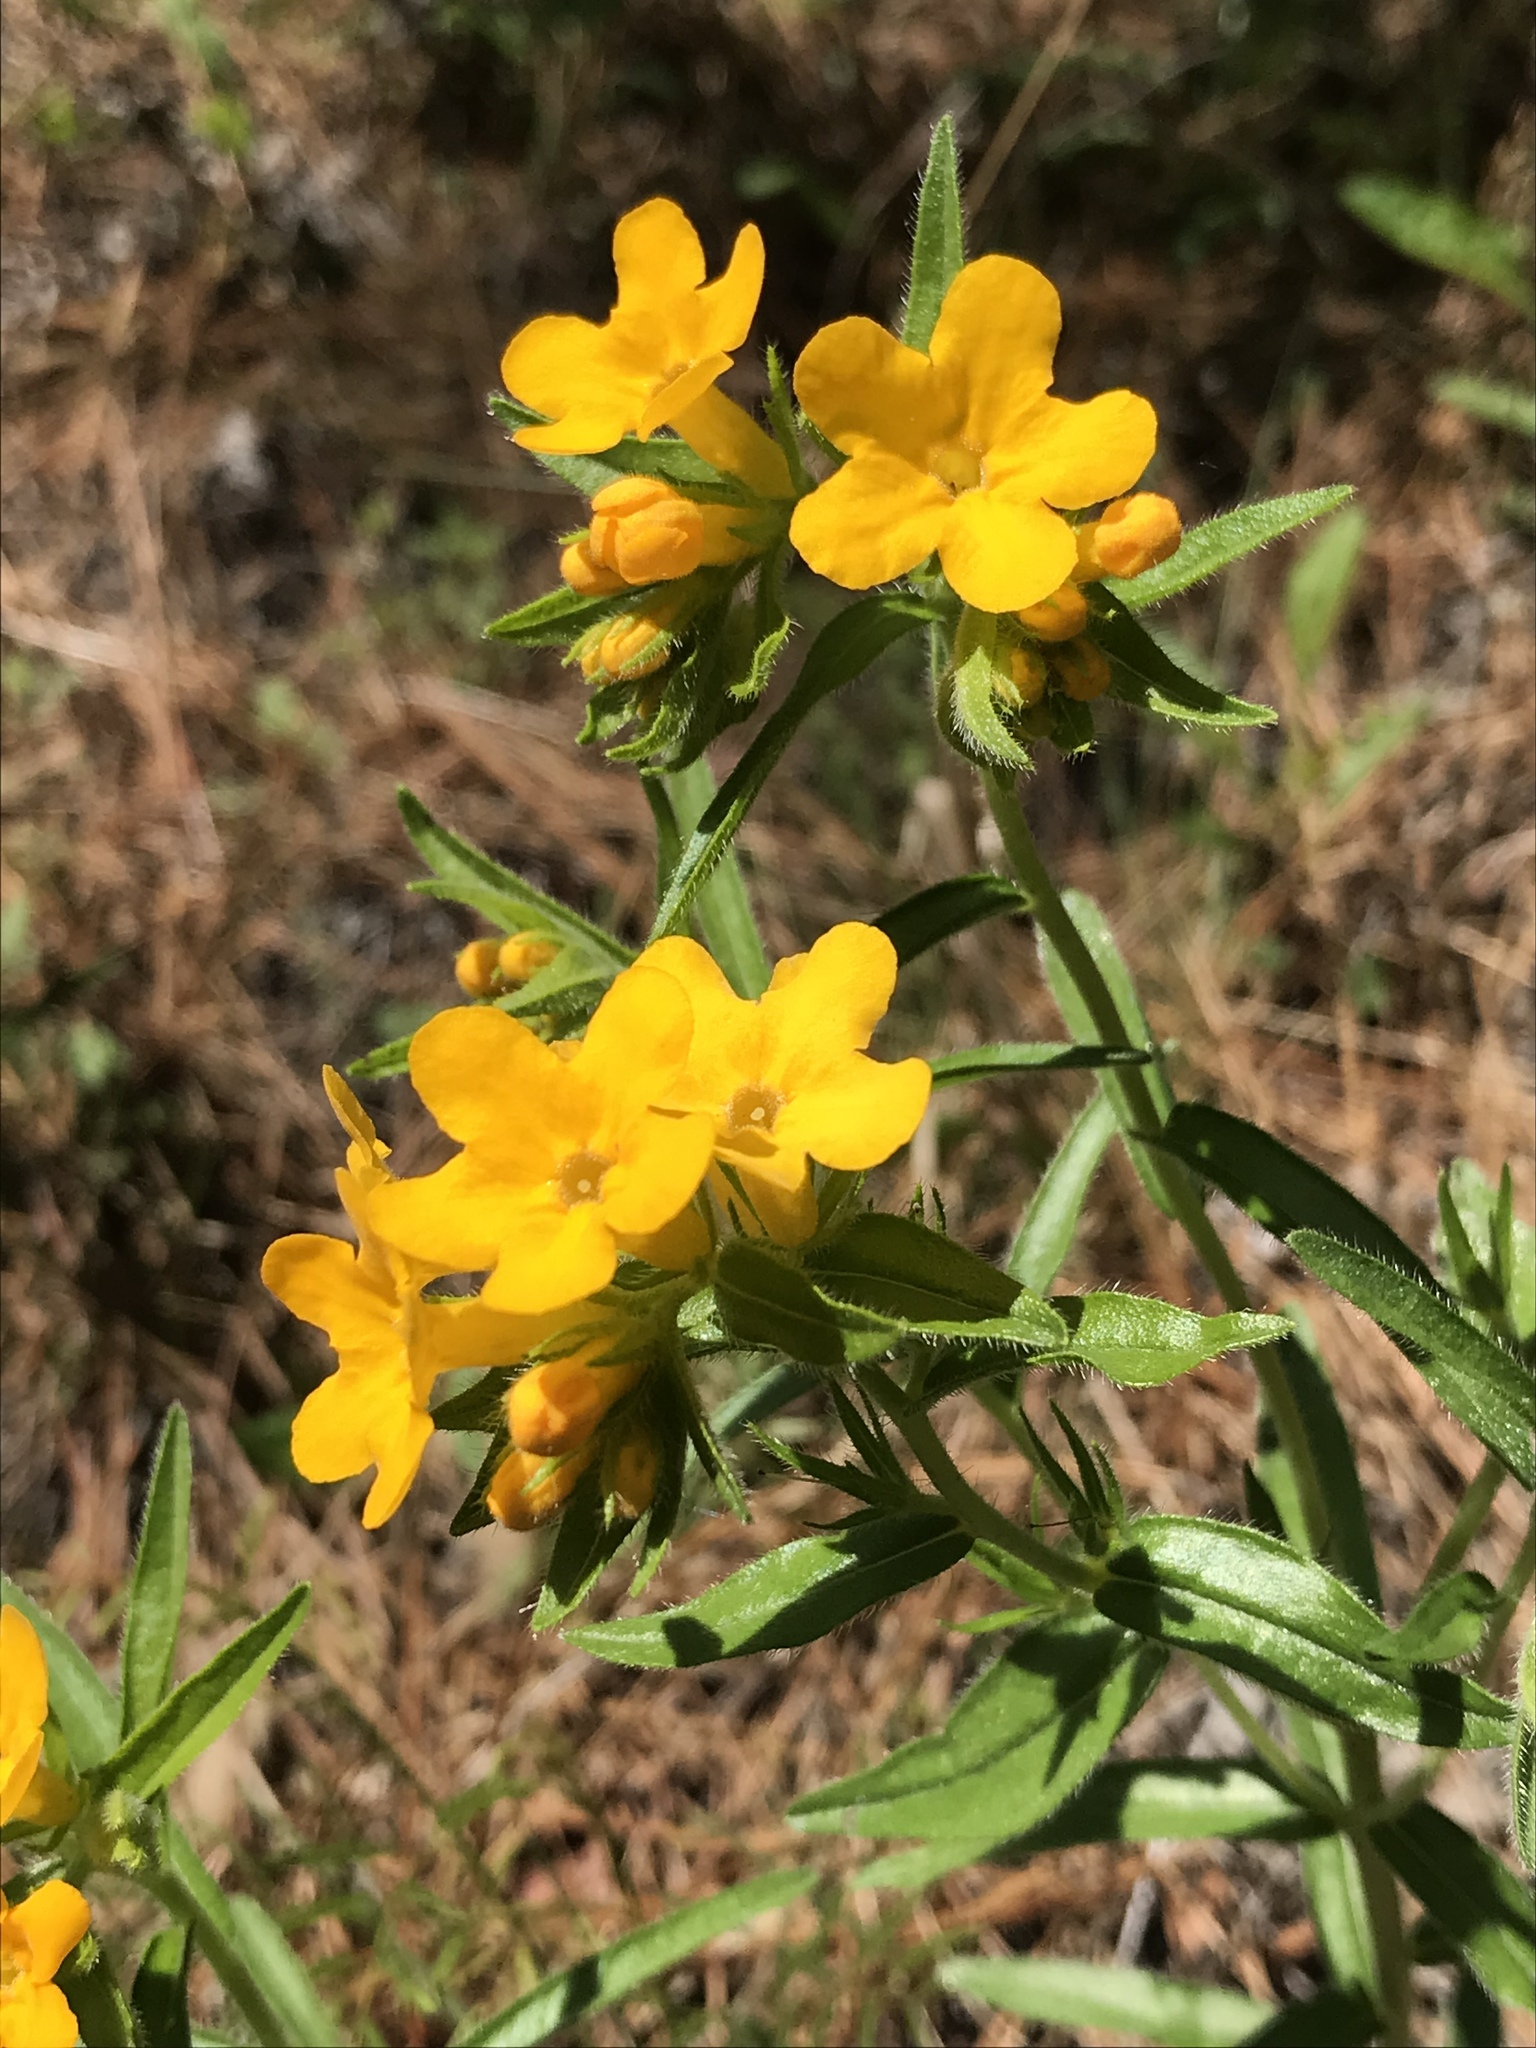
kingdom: Plantae
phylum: Tracheophyta
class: Magnoliopsida
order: Boraginales
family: Boraginaceae
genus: Lithospermum
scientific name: Lithospermum caroliniense
